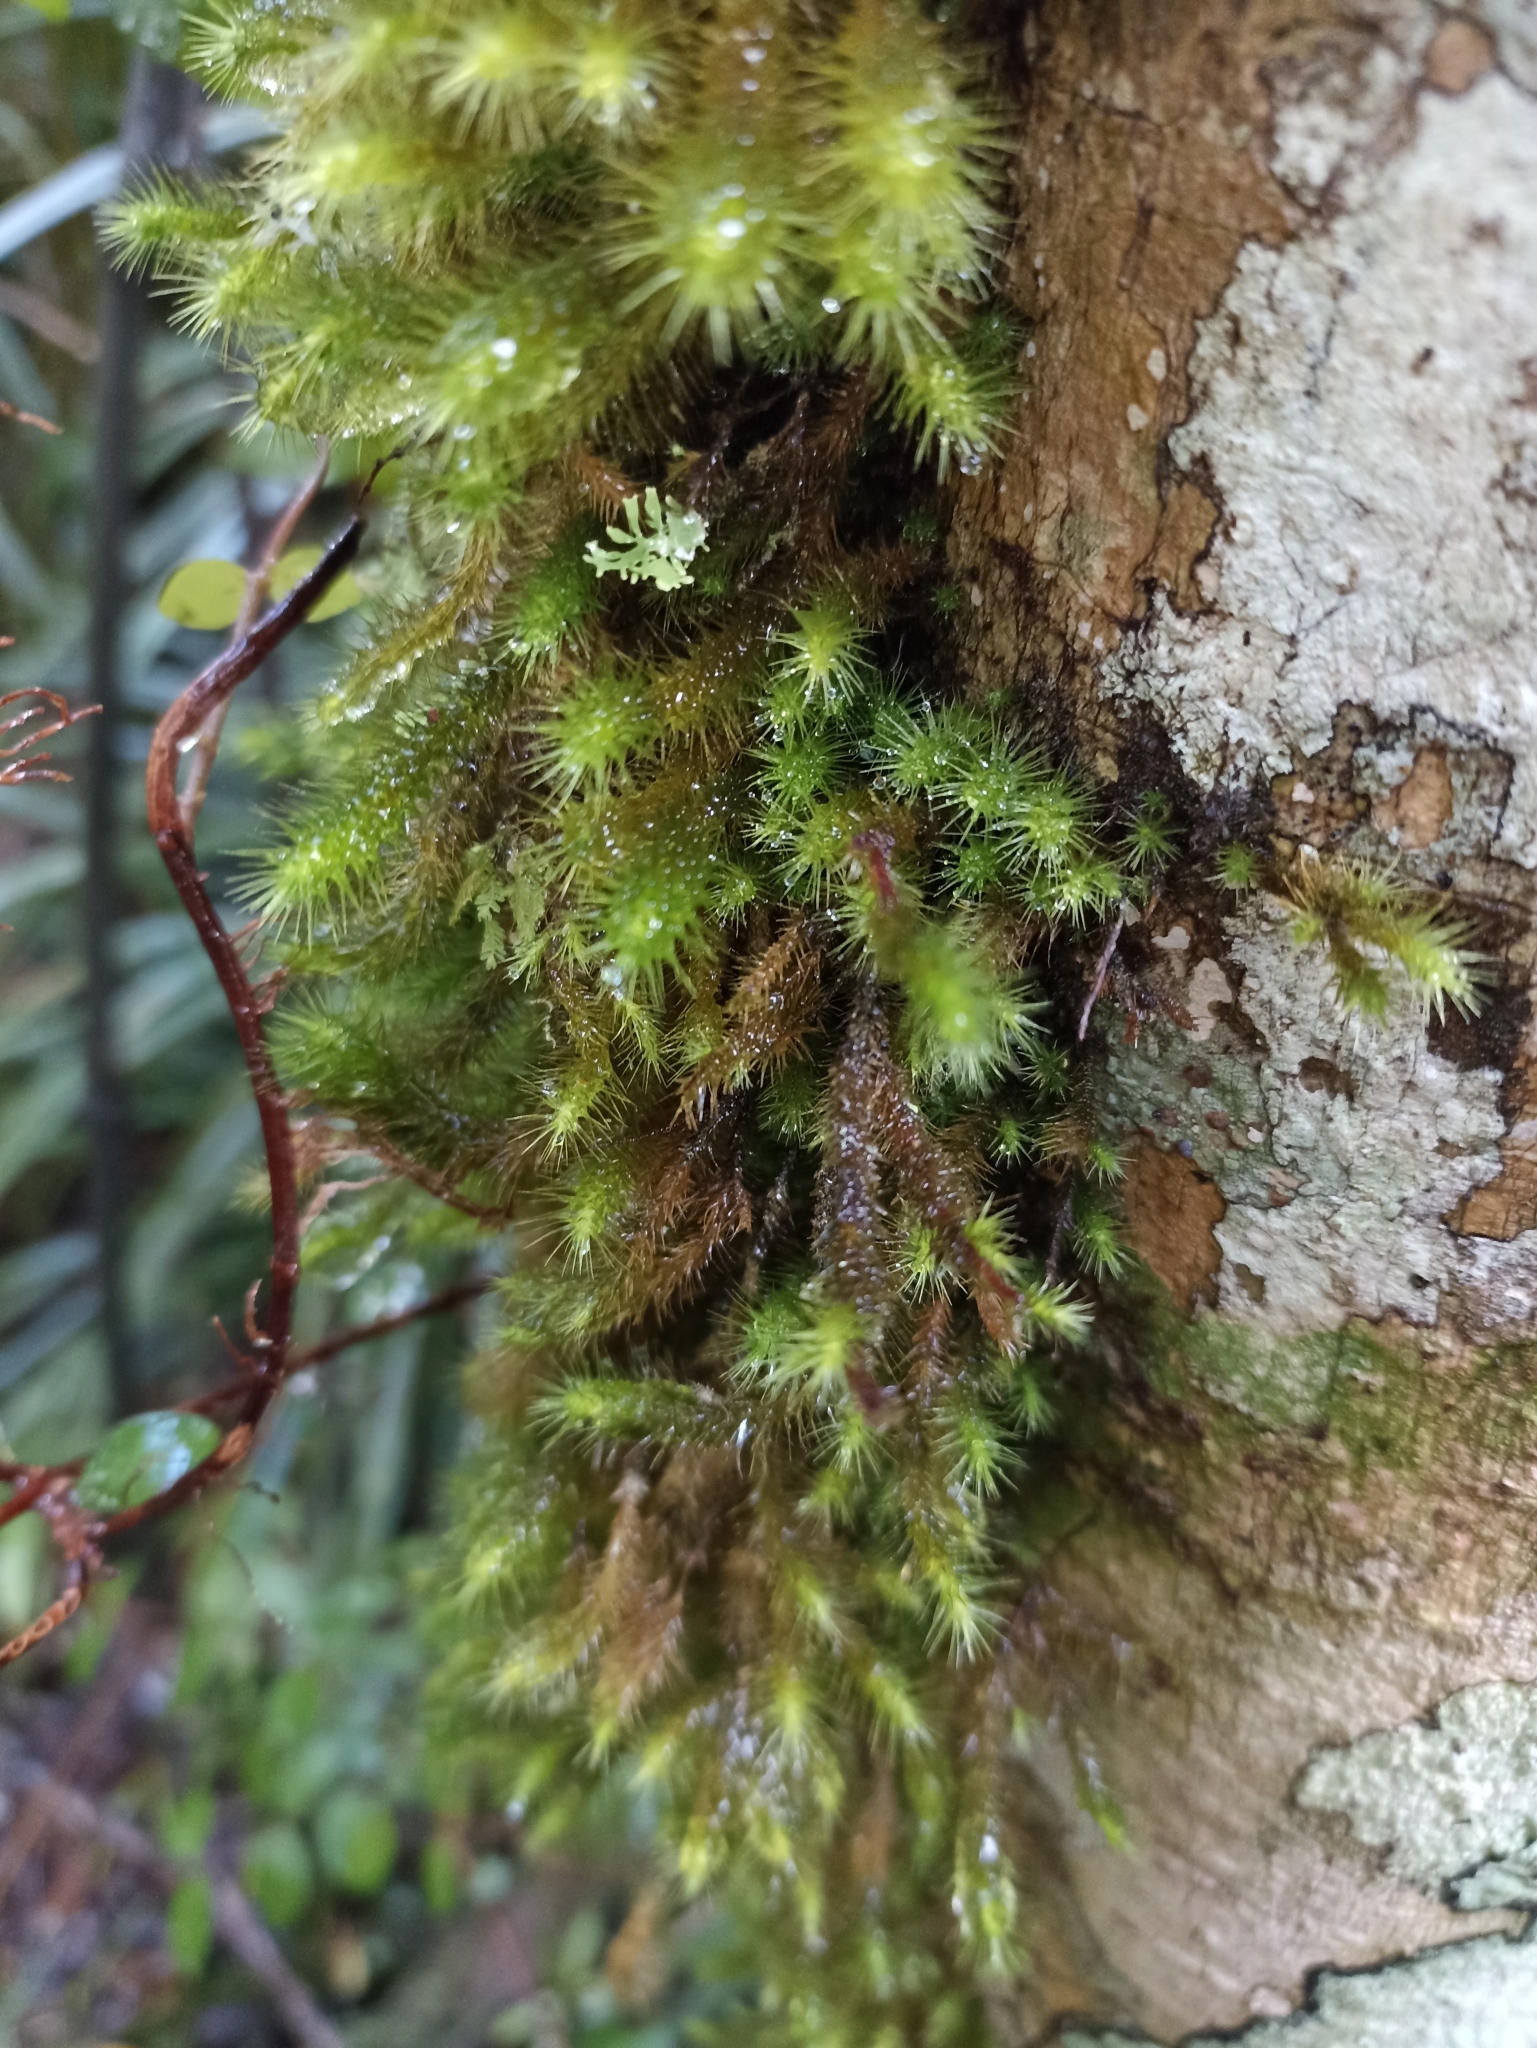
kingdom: Plantae
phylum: Bryophyta
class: Bryopsida
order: Hypnodendrales
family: Spiridentaceae
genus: Cyrtopus
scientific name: Cyrtopus setosus
